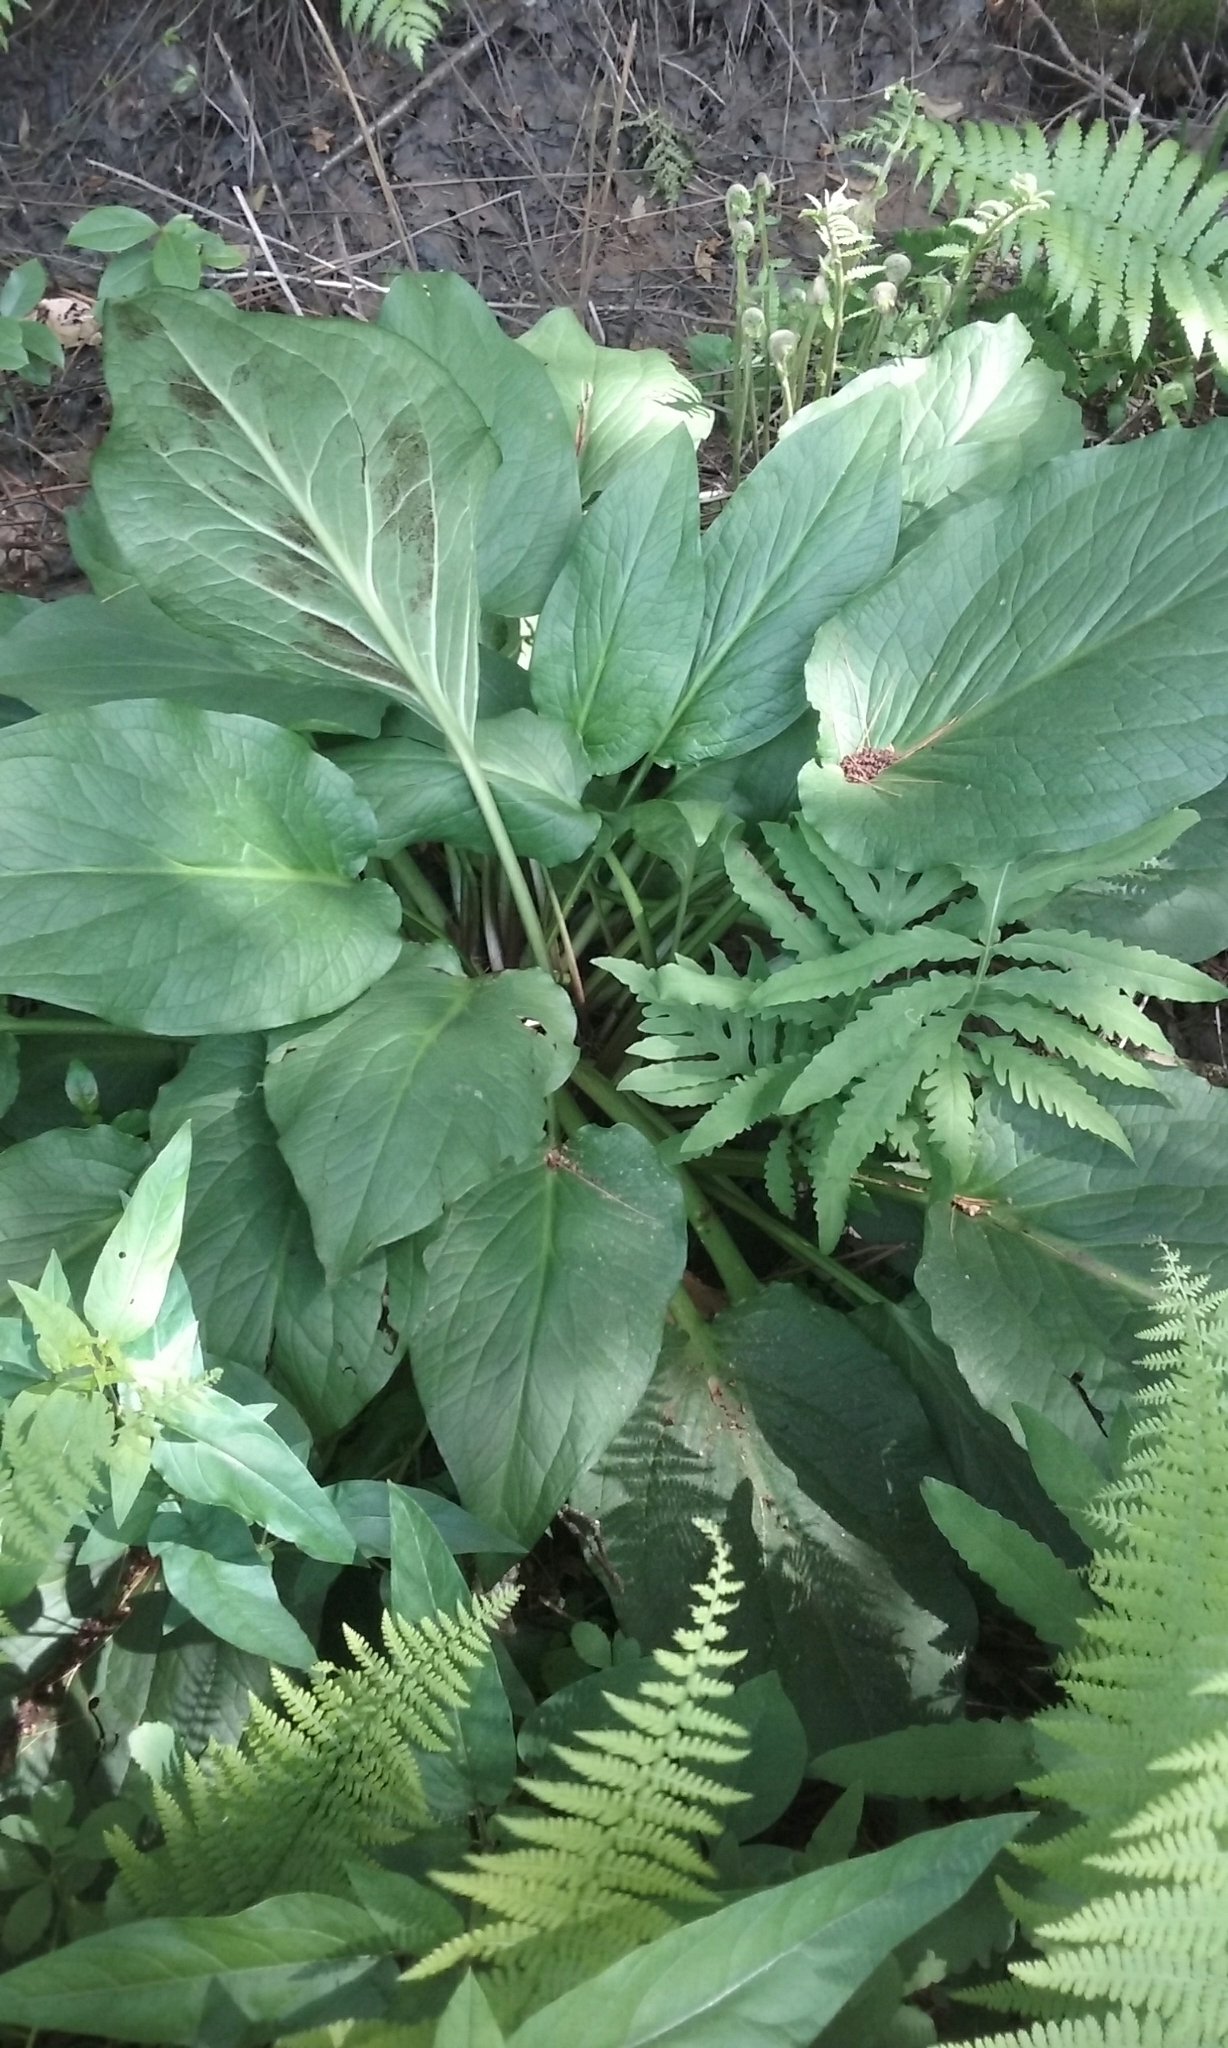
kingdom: Plantae
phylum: Tracheophyta
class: Liliopsida
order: Alismatales
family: Araceae
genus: Symplocarpus
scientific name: Symplocarpus foetidus
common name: Eastern skunk cabbage
